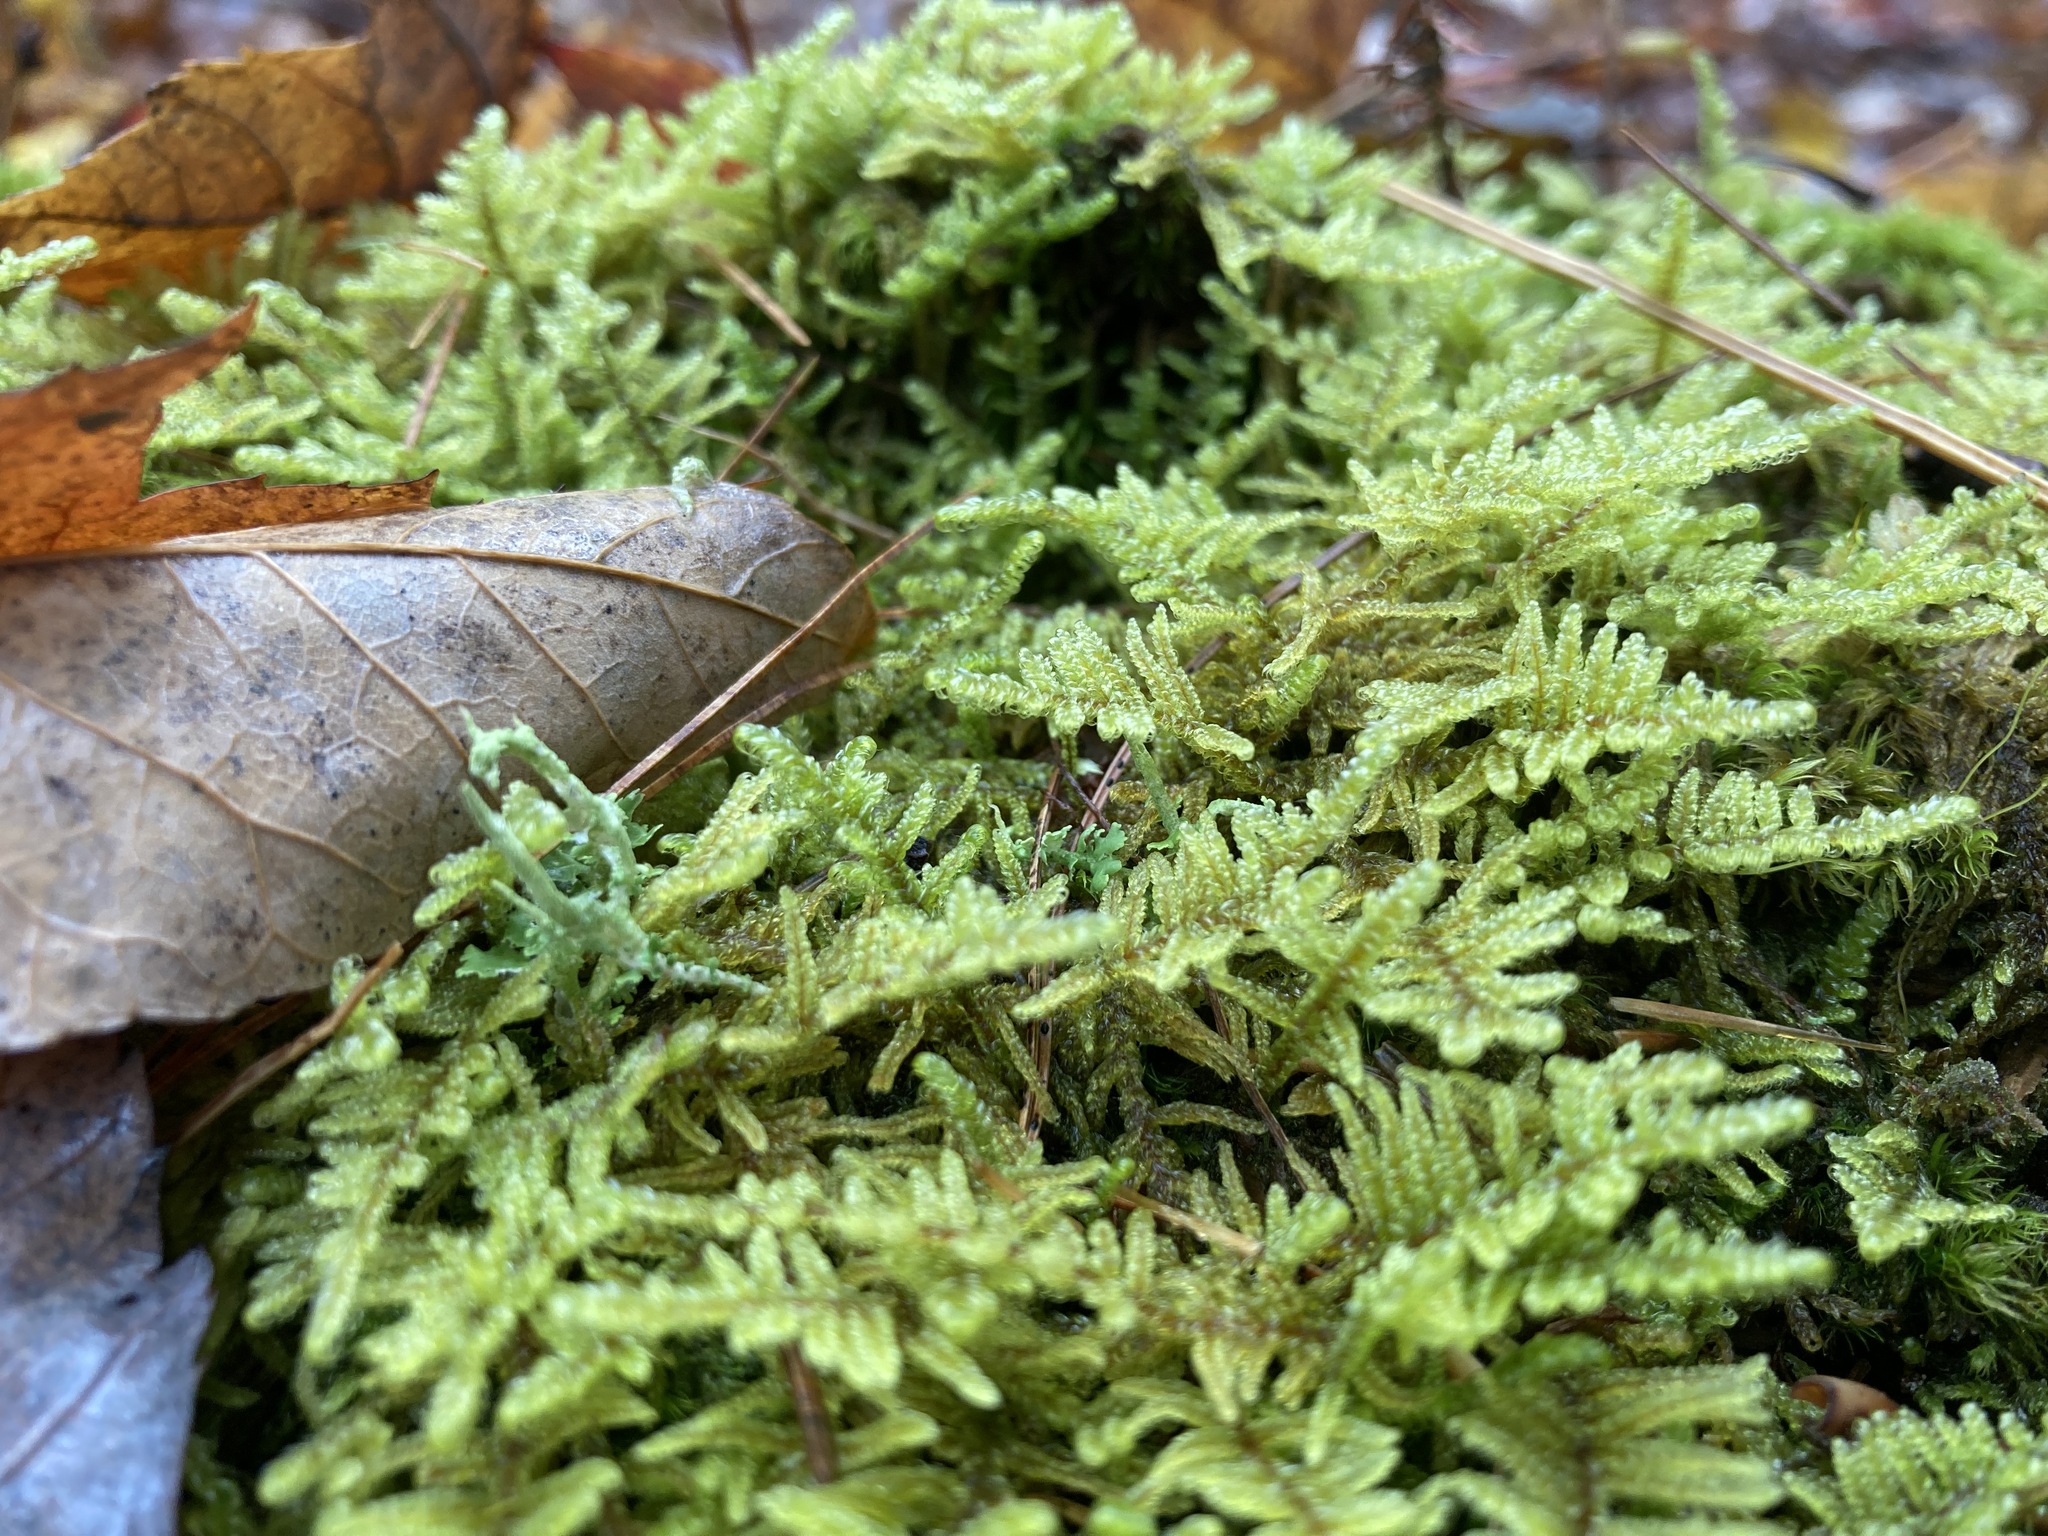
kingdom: Plantae
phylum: Bryophyta
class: Bryopsida
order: Hypnales
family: Callicladiaceae
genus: Callicladium
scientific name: Callicladium imponens
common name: Brocade moss
